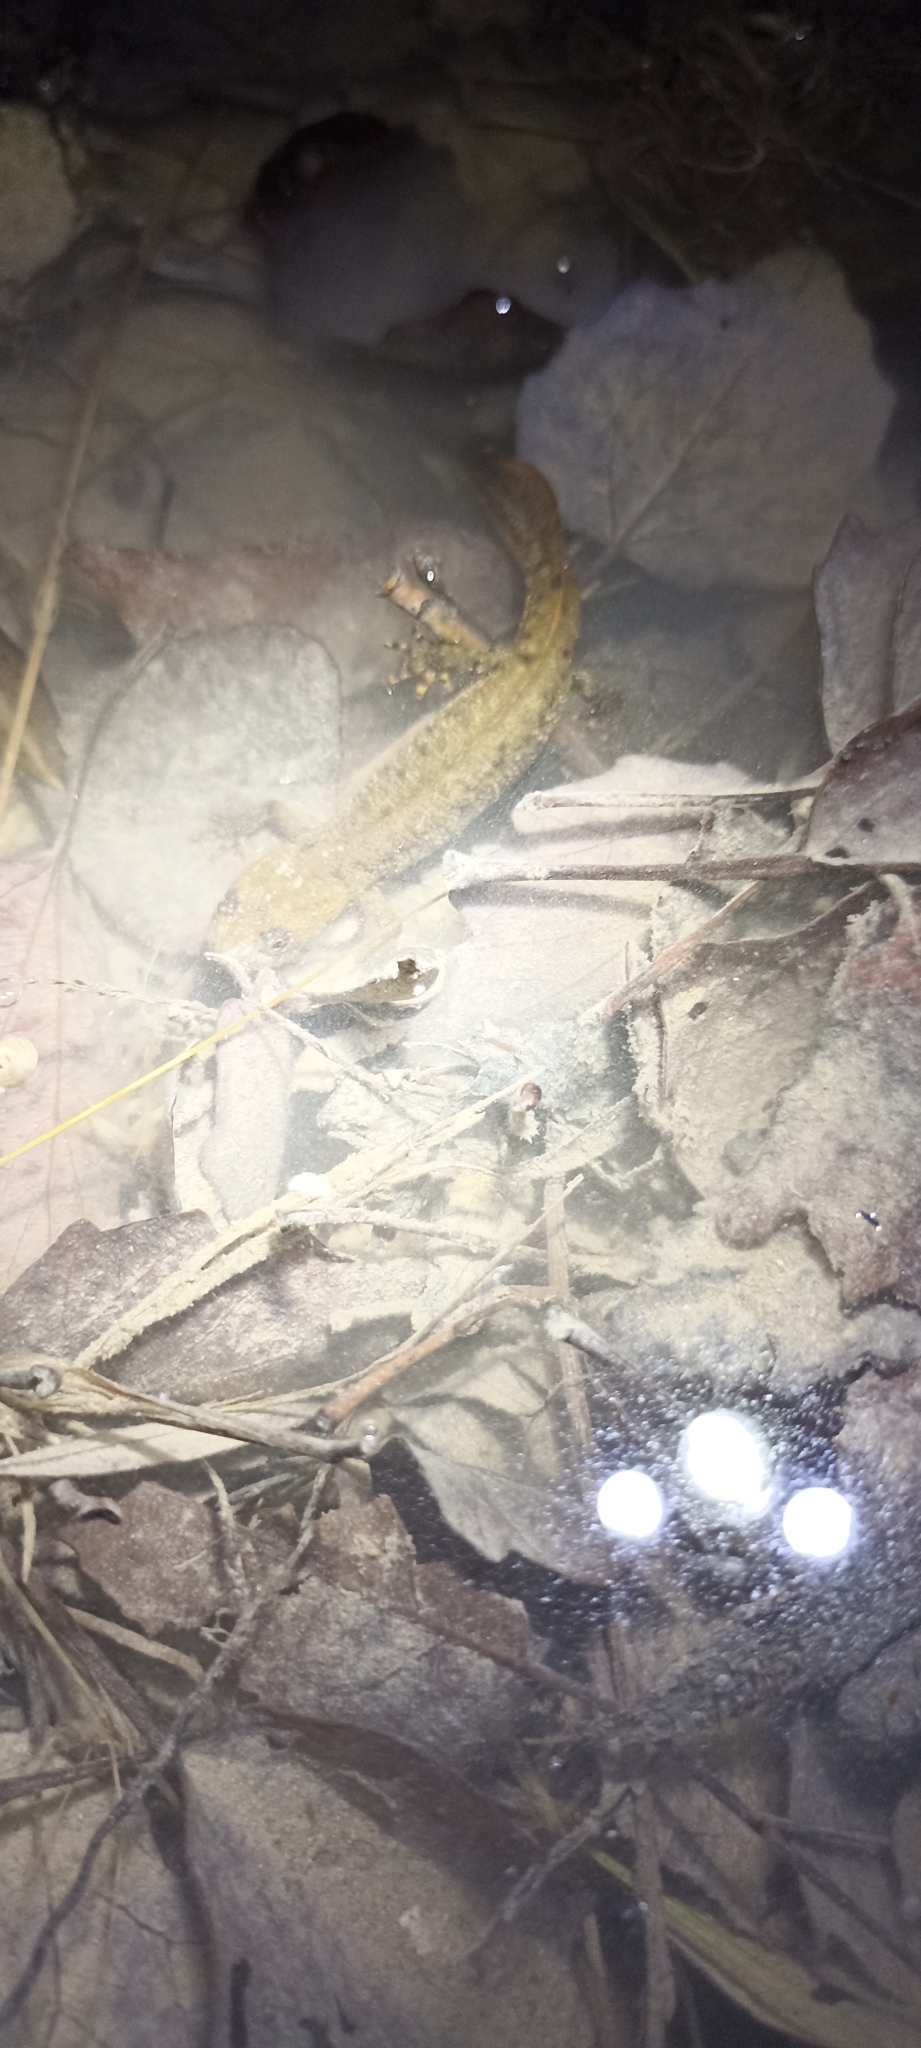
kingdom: Animalia
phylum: Chordata
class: Amphibia
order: Caudata
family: Salamandridae
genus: Triturus
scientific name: Triturus cristatus
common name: Crested newt
